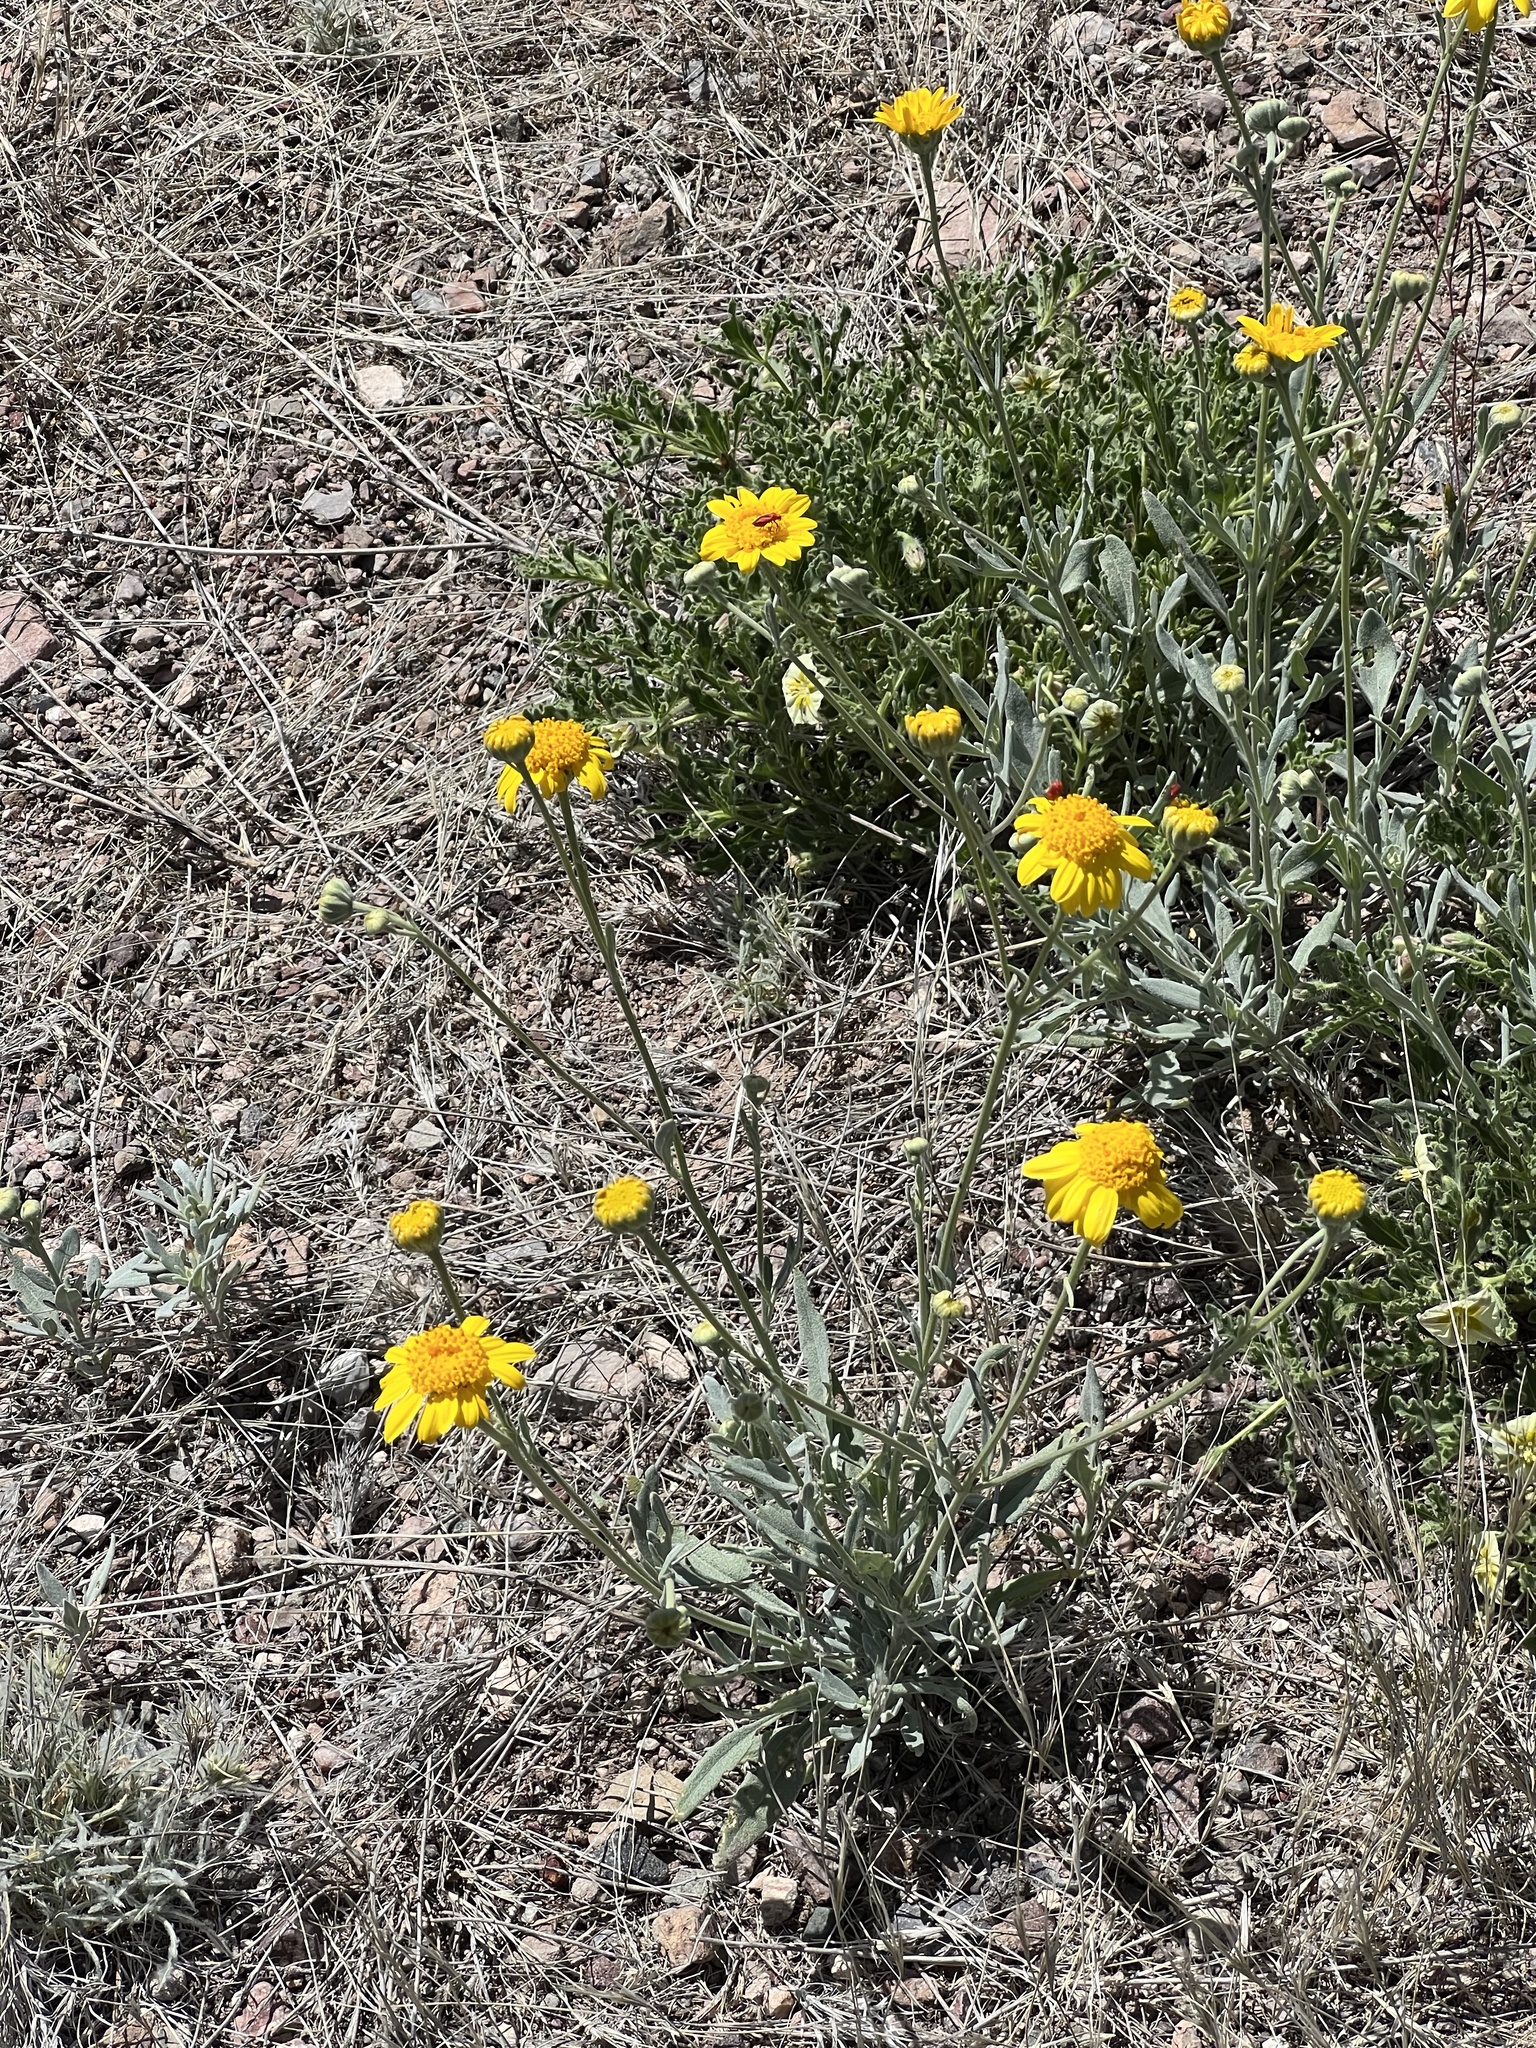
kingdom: Plantae
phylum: Tracheophyta
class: Magnoliopsida
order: Asterales
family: Asteraceae
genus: Picradeniopsis
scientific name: Picradeniopsis absinthifolia
